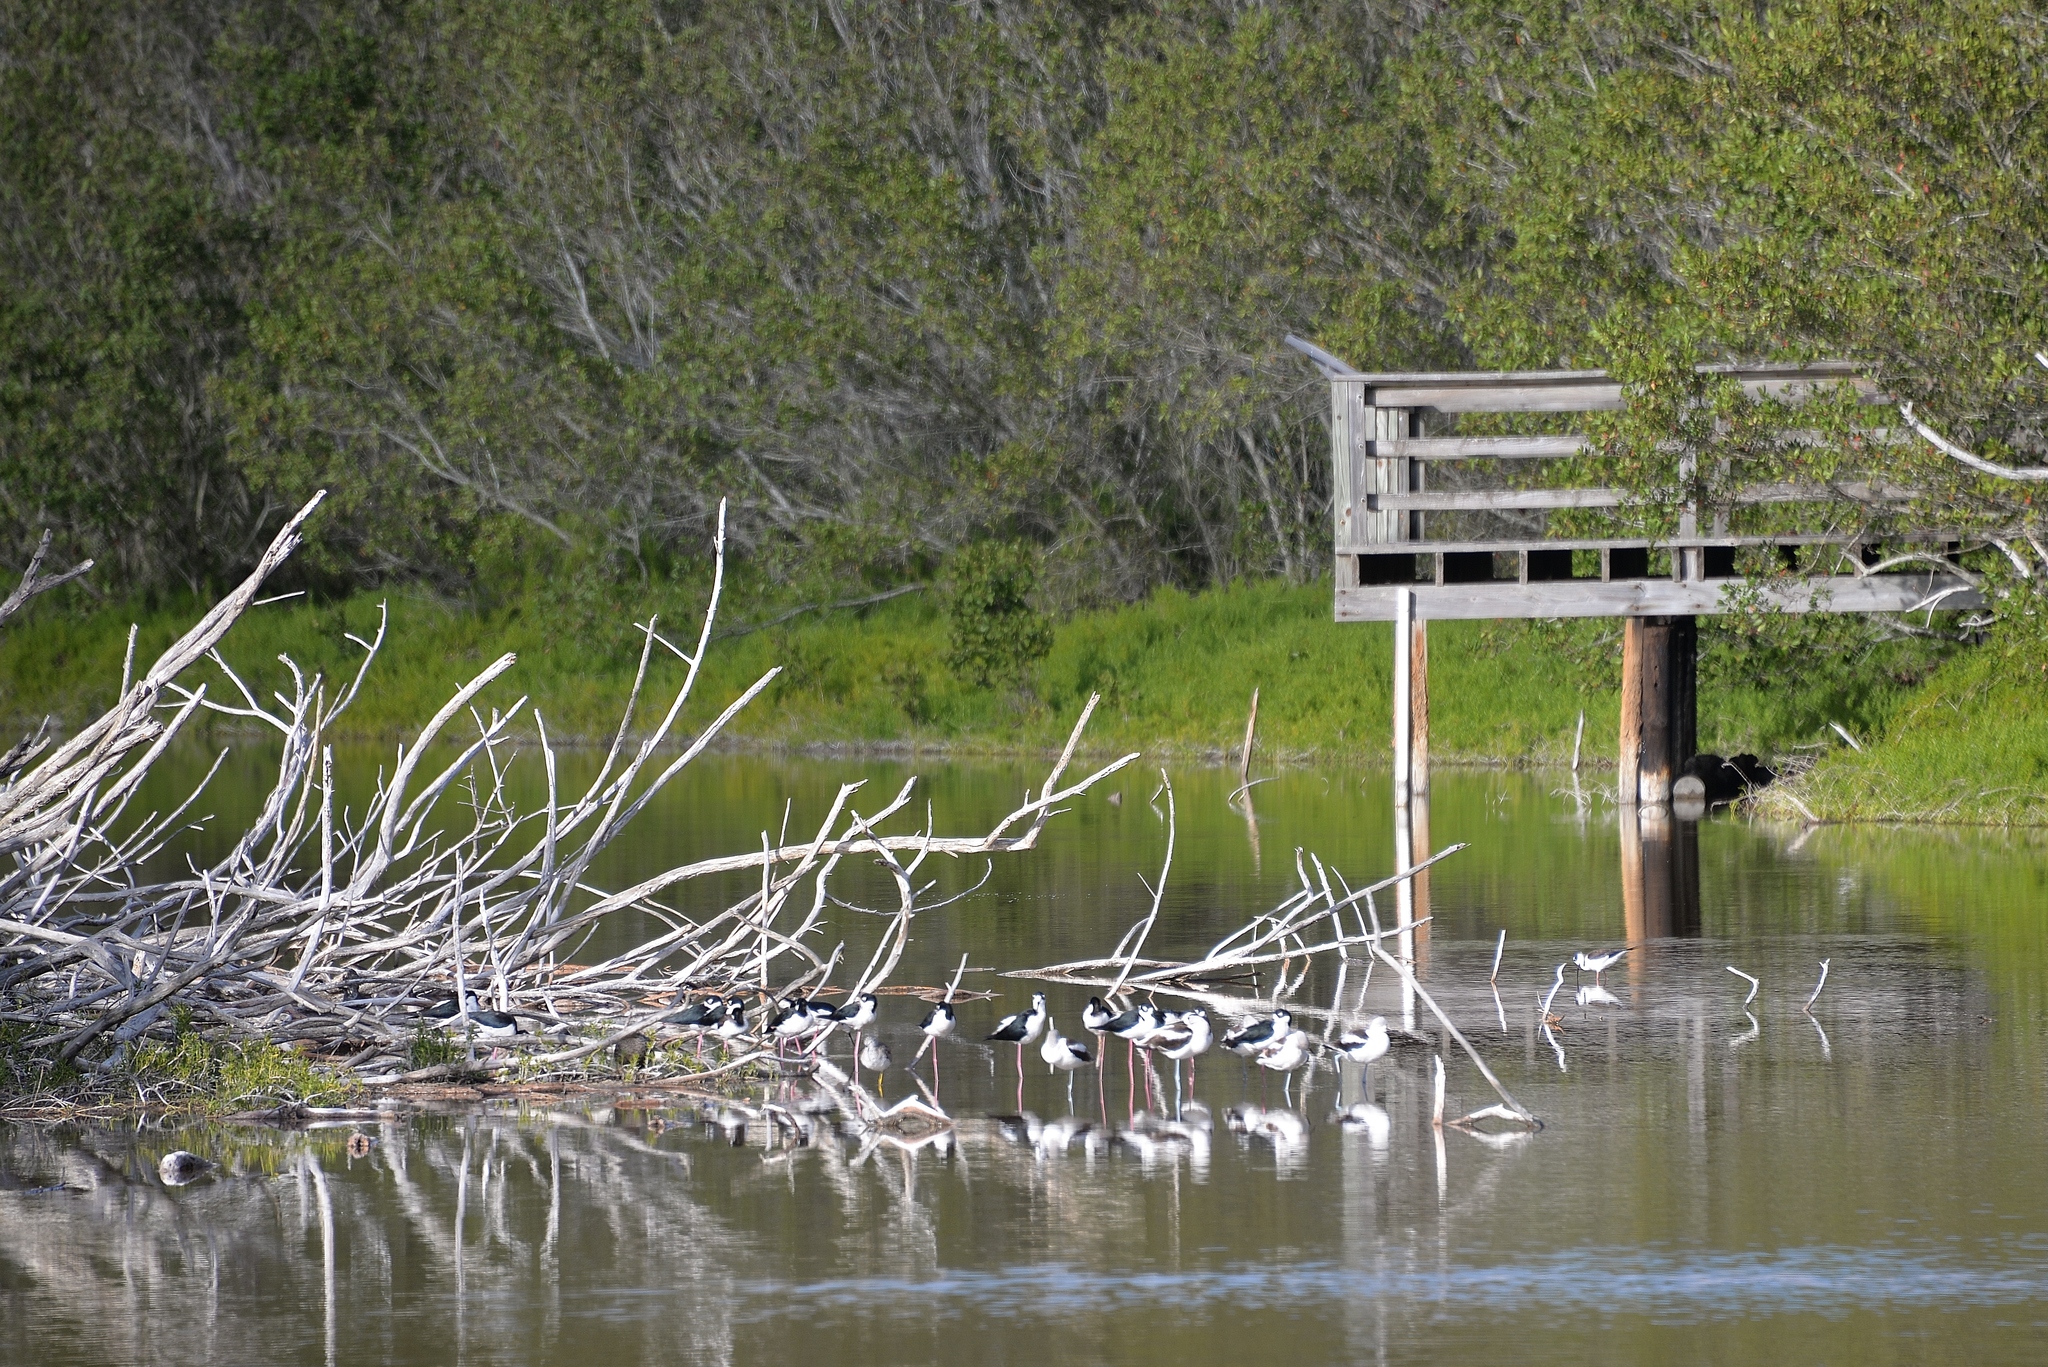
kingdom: Animalia
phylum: Chordata
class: Aves
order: Charadriiformes
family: Recurvirostridae
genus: Himantopus
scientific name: Himantopus mexicanus
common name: Black-necked stilt
